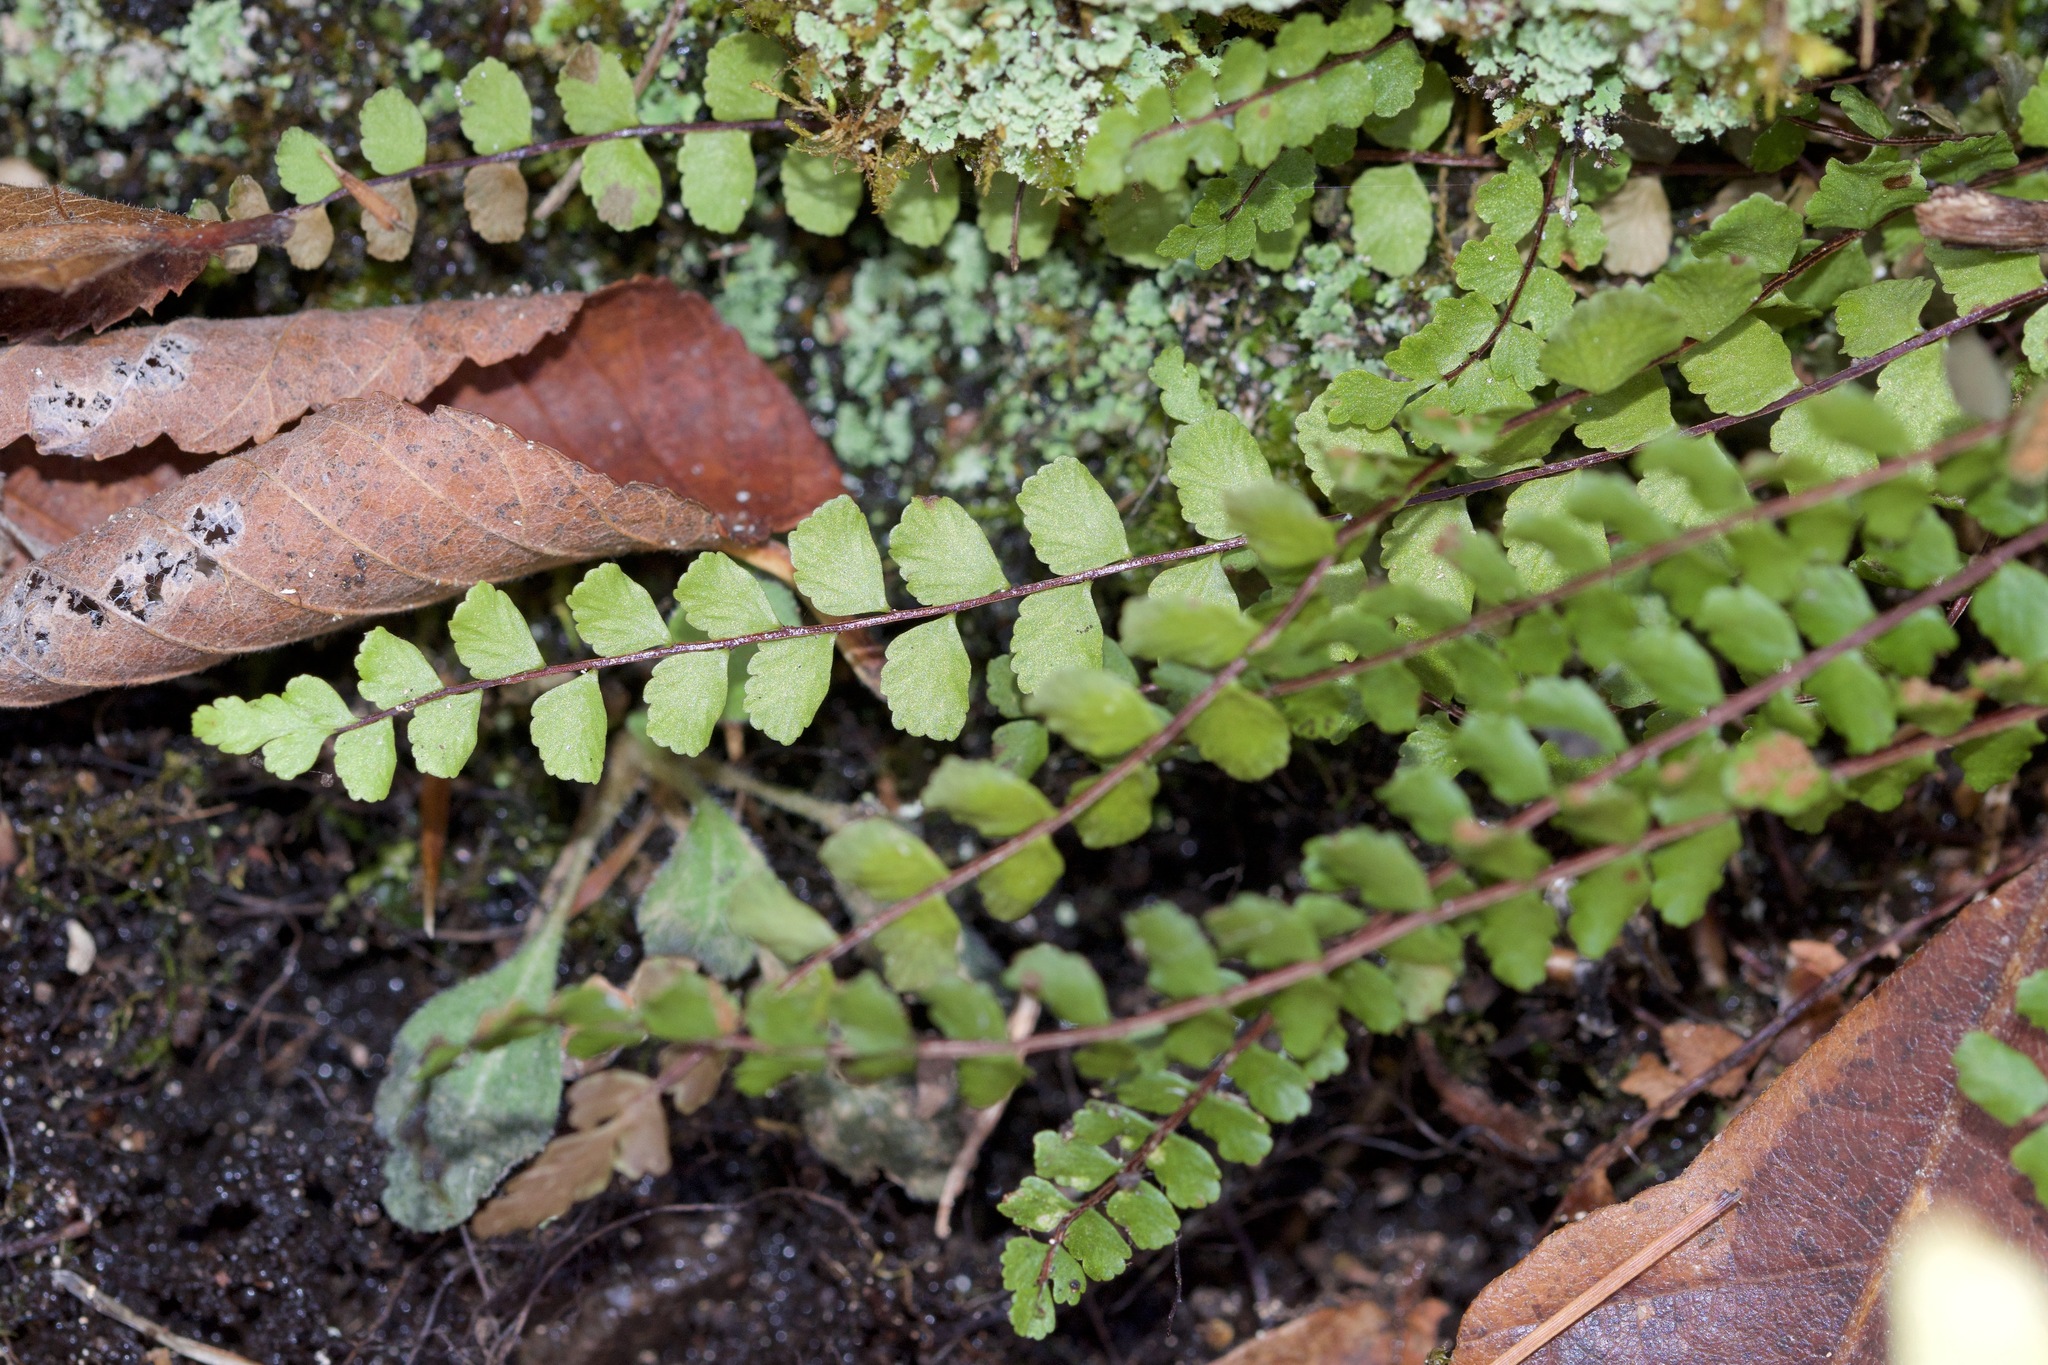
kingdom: Plantae
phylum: Tracheophyta
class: Polypodiopsida
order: Polypodiales
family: Aspleniaceae
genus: Asplenium
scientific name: Asplenium trichomanes
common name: Maidenhair spleenwort
